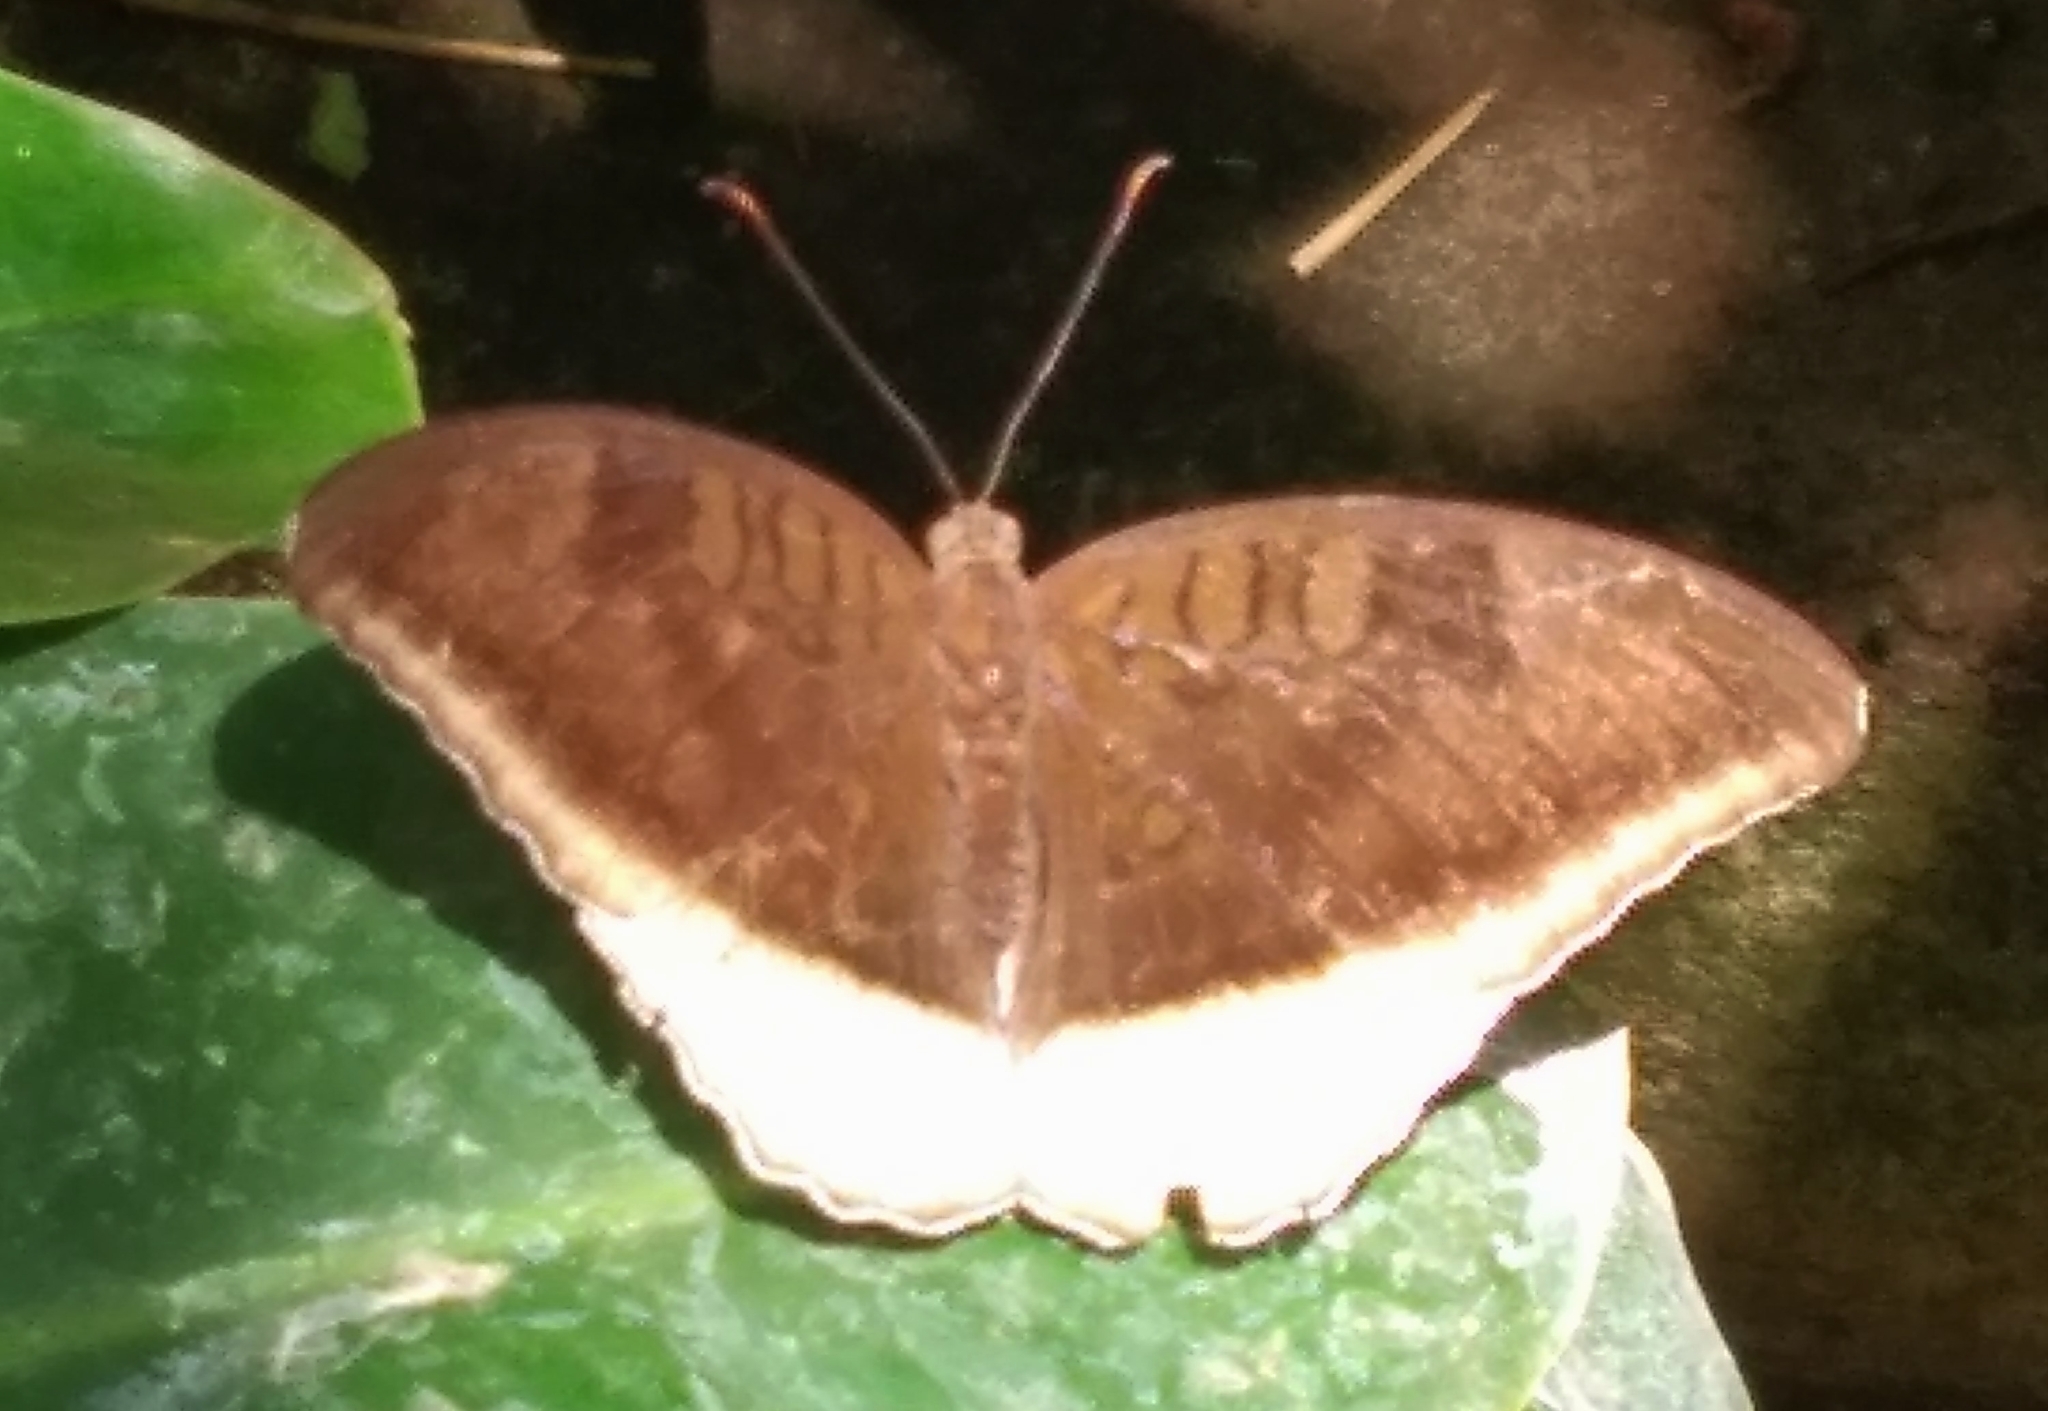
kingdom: Animalia
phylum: Arthropoda
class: Insecta
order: Lepidoptera
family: Nymphalidae
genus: Tanaecia
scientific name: Tanaecia lepidea
